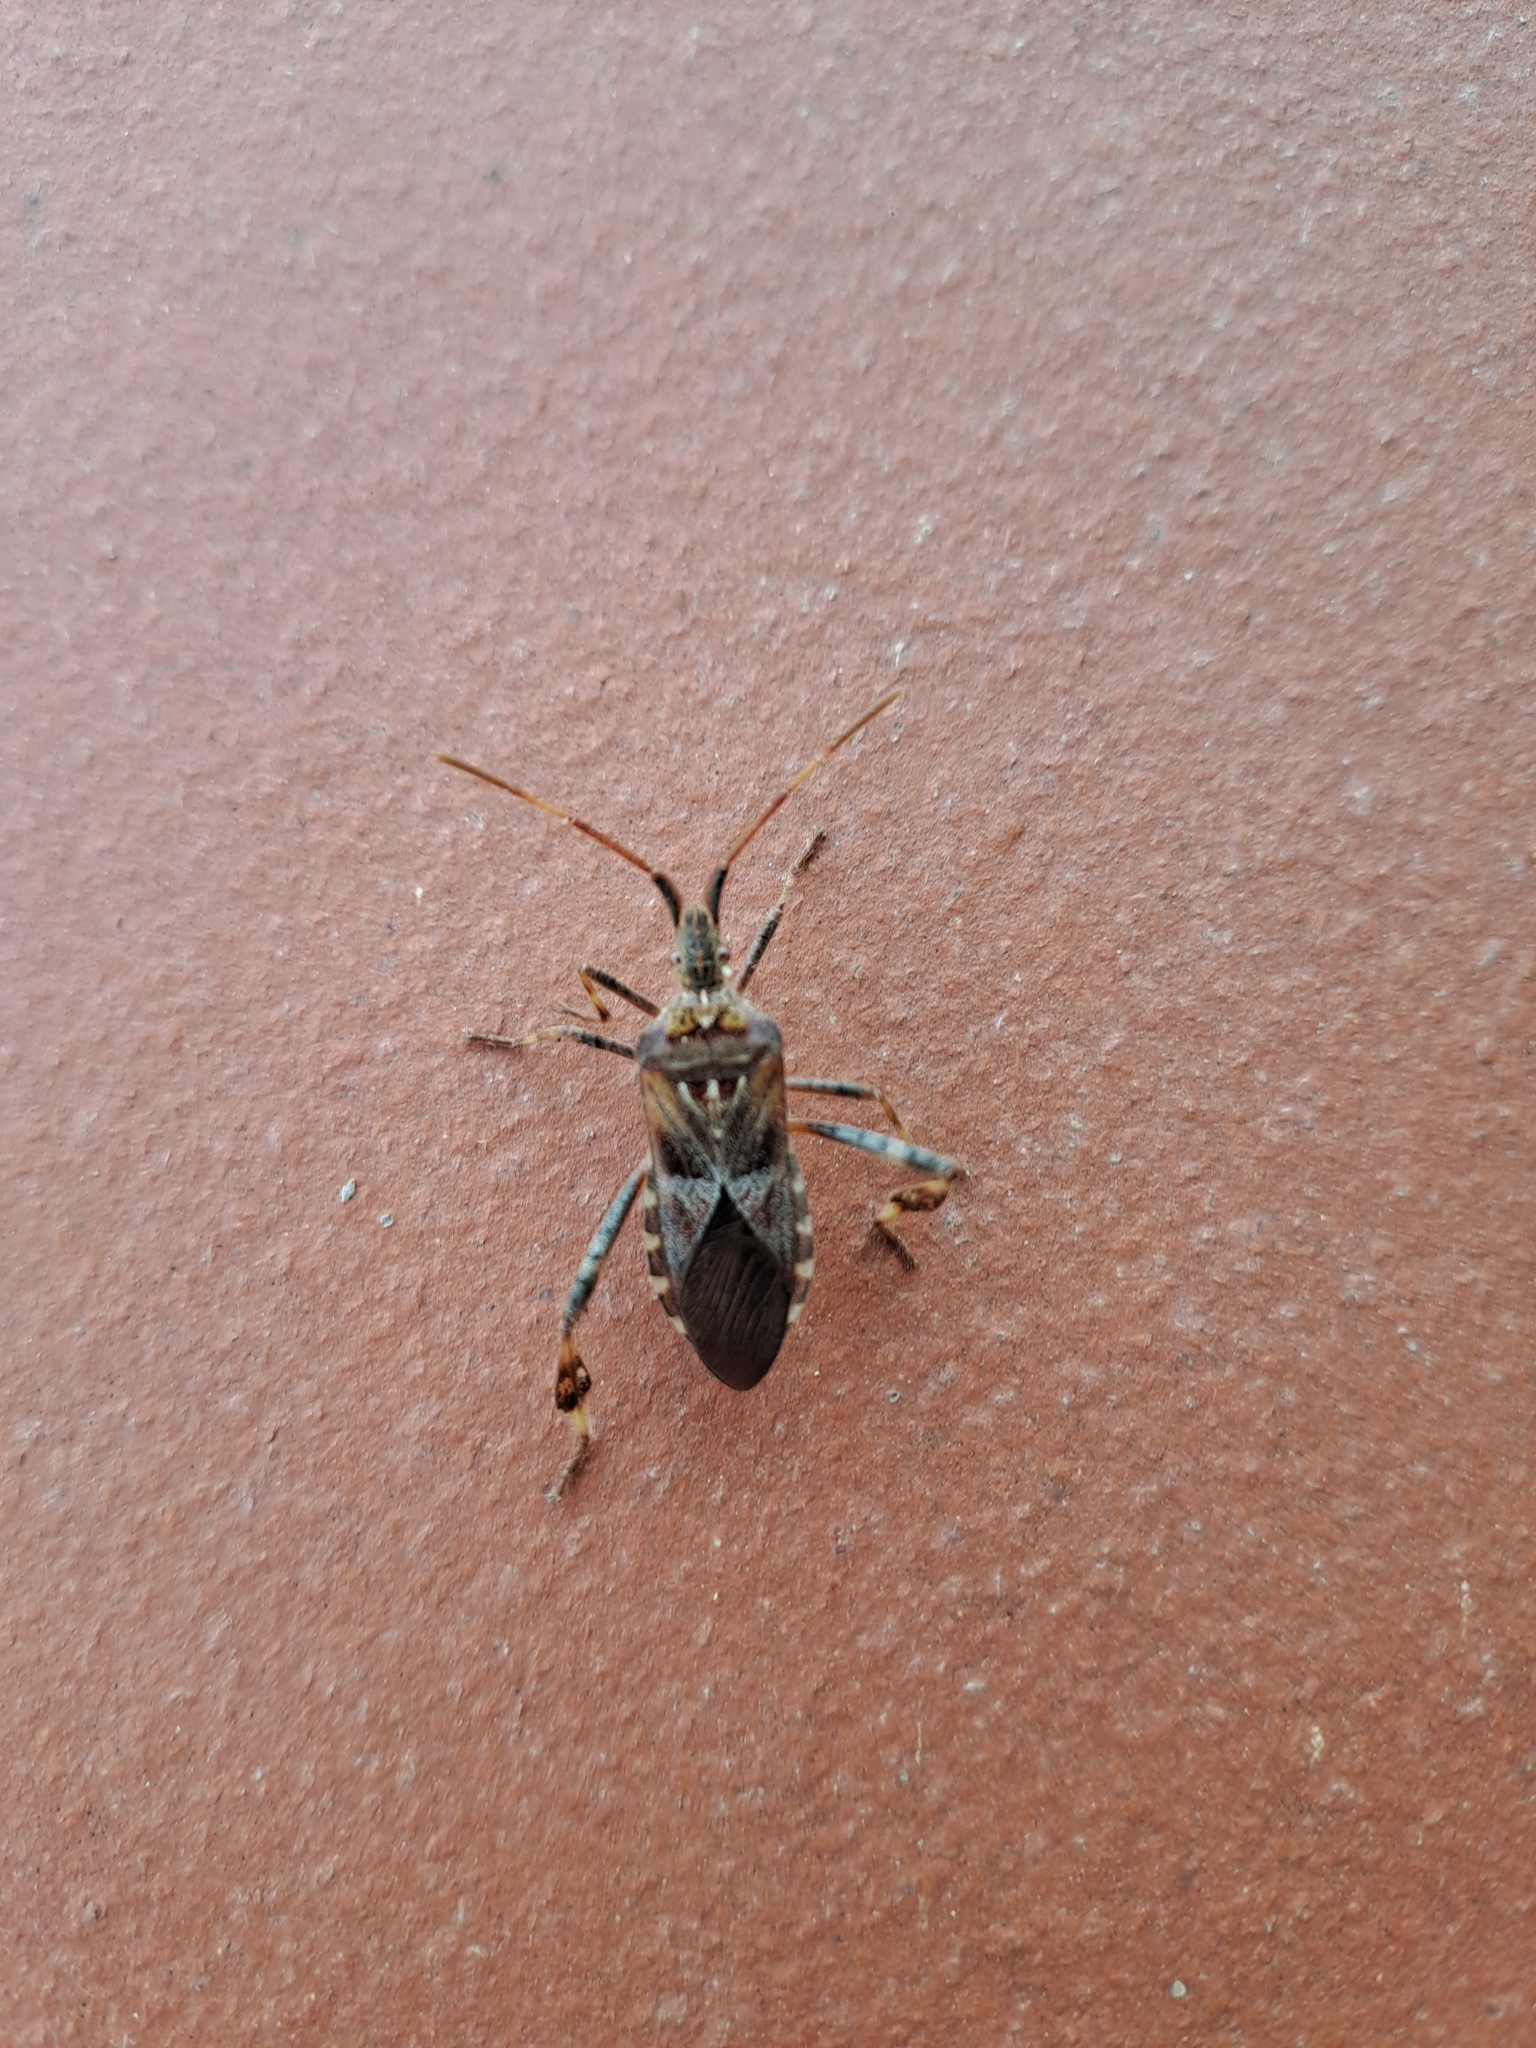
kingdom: Animalia
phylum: Arthropoda
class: Insecta
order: Hemiptera
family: Coreidae
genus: Leptoglossus
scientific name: Leptoglossus occidentalis
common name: Western conifer-seed bug
